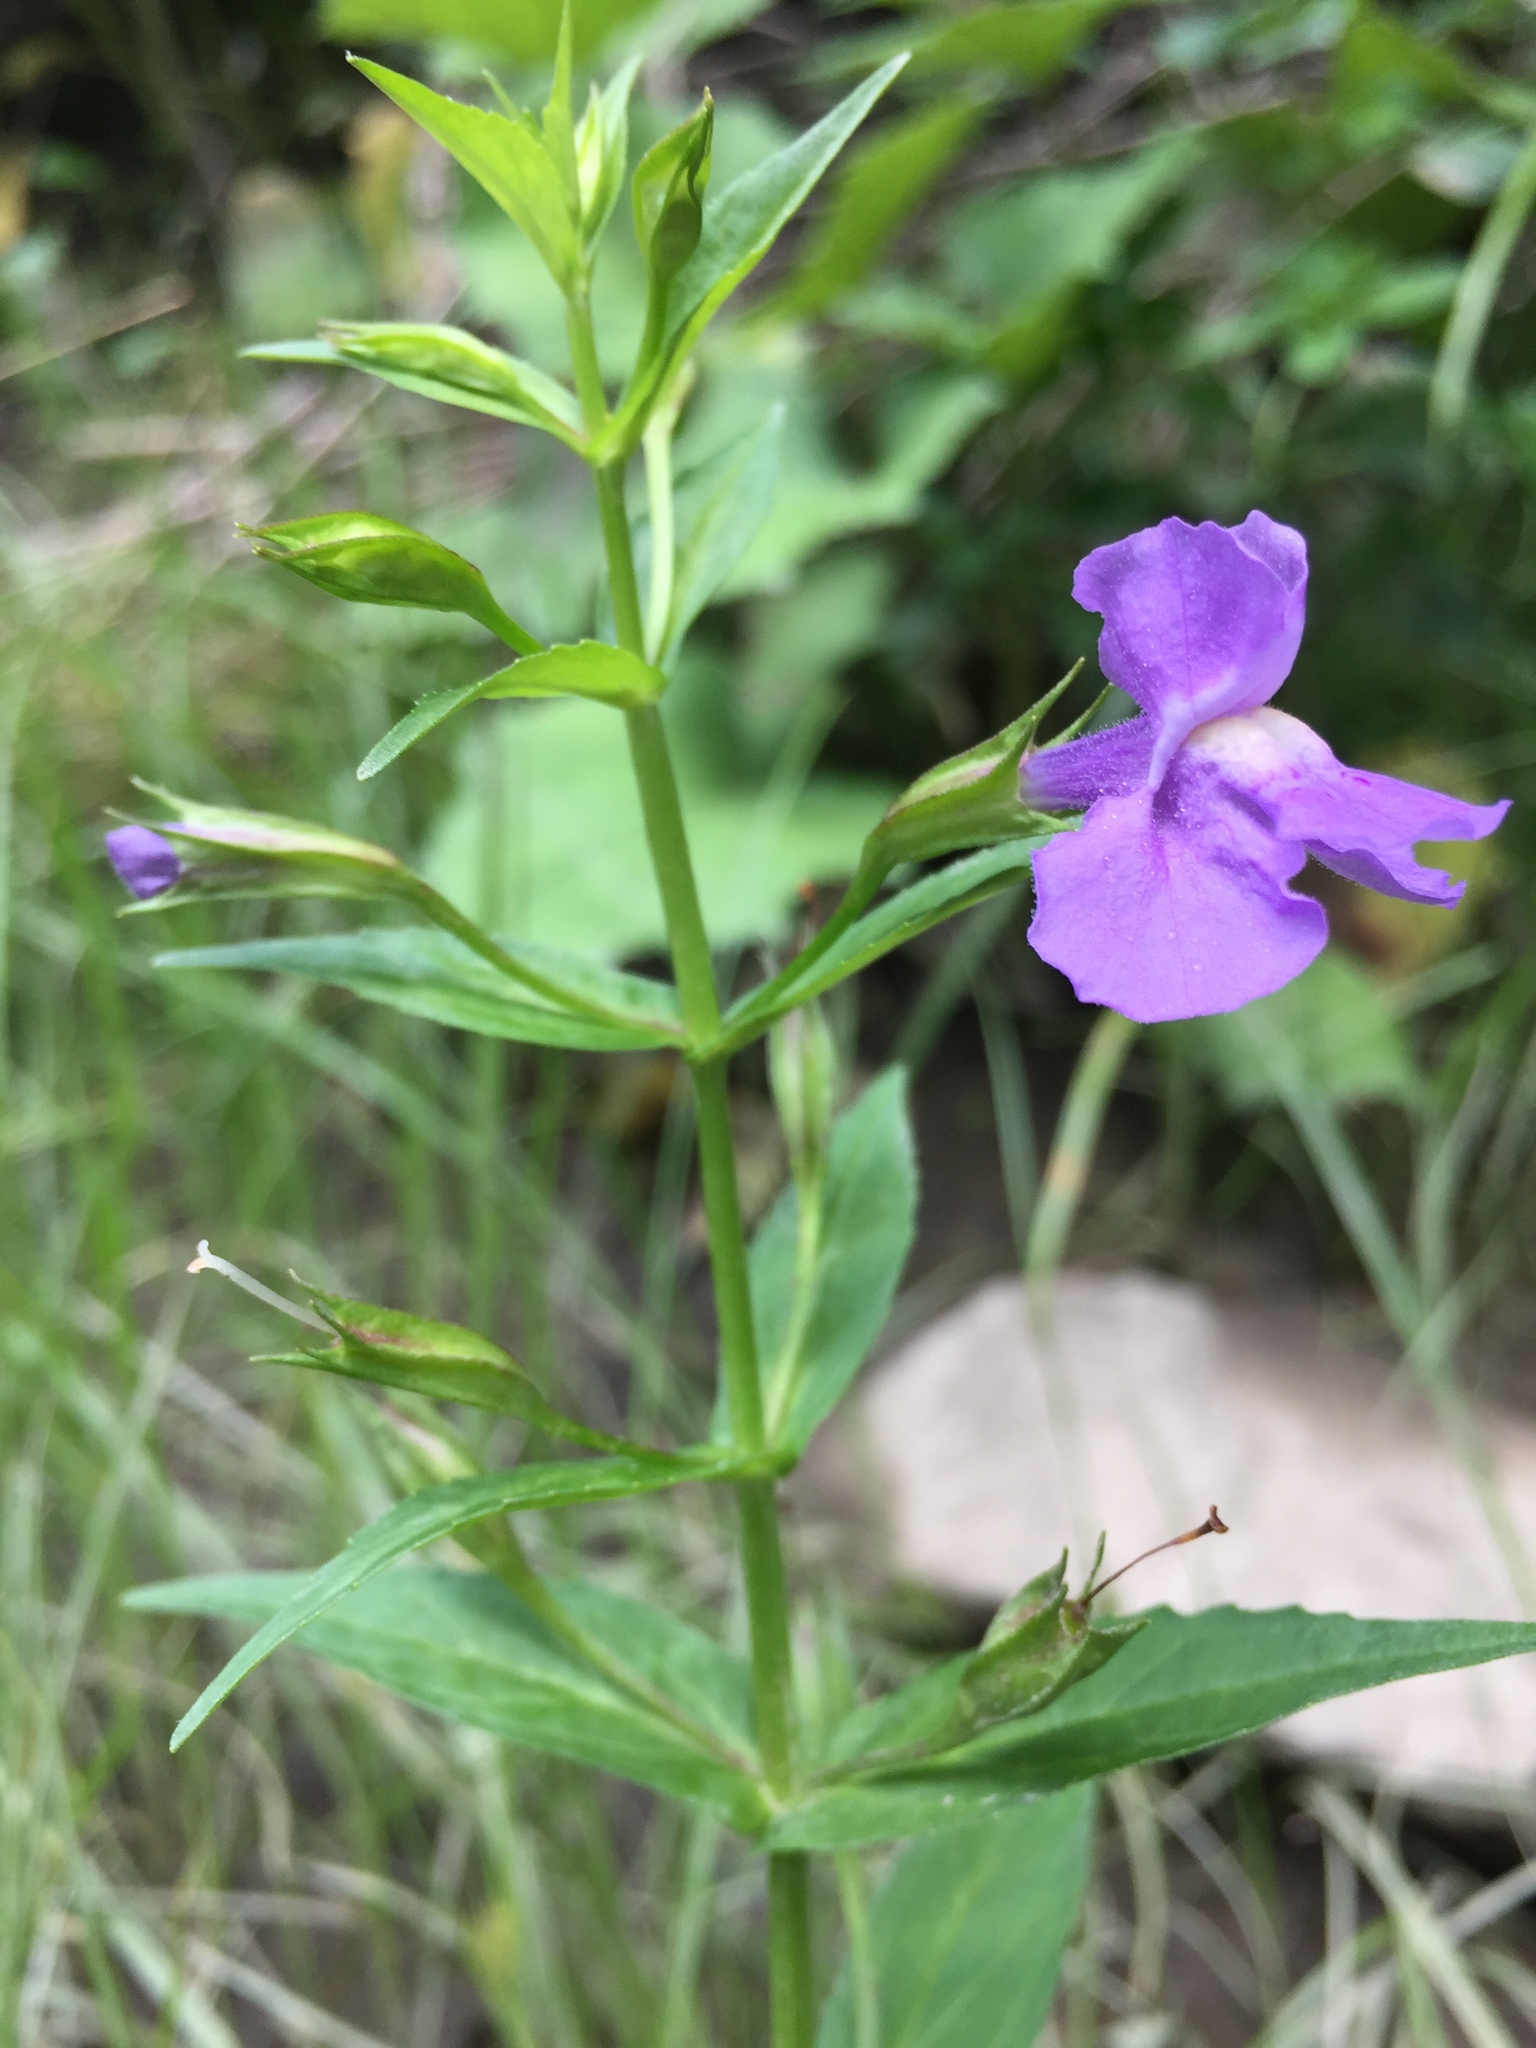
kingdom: Plantae
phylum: Tracheophyta
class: Magnoliopsida
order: Lamiales
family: Phrymaceae
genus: Mimulus
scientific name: Mimulus ringens
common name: Allegheny monkeyflower
